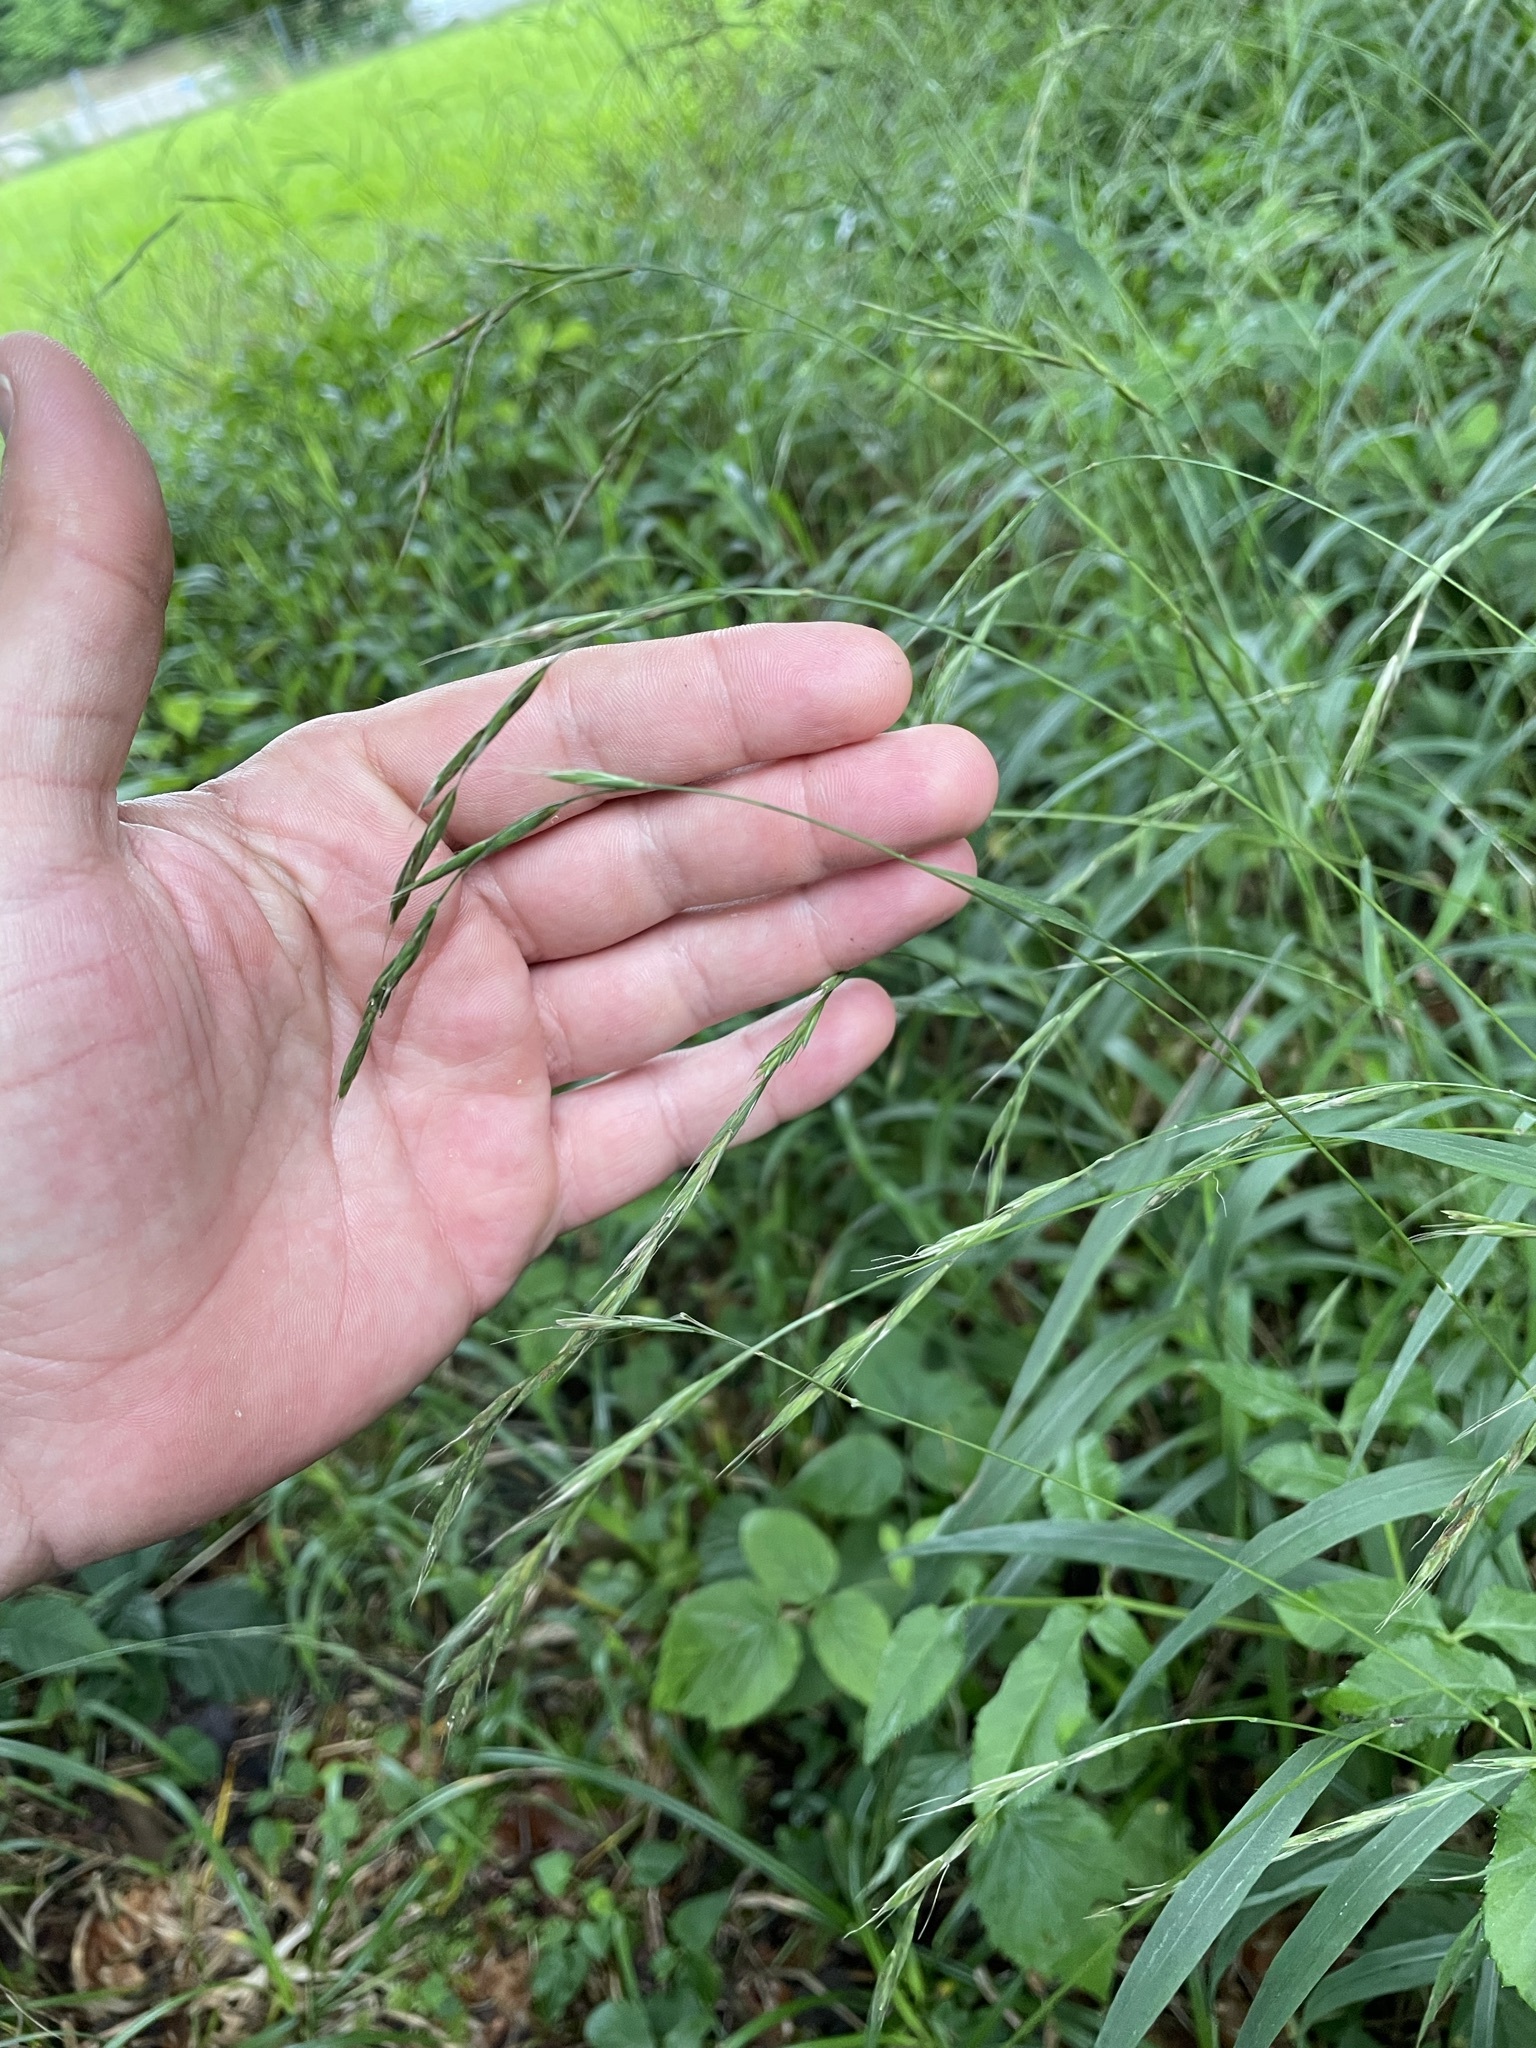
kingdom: Plantae
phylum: Tracheophyta
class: Liliopsida
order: Poales
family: Poaceae
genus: Brachypodium
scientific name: Brachypodium sylvaticum
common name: False-brome
